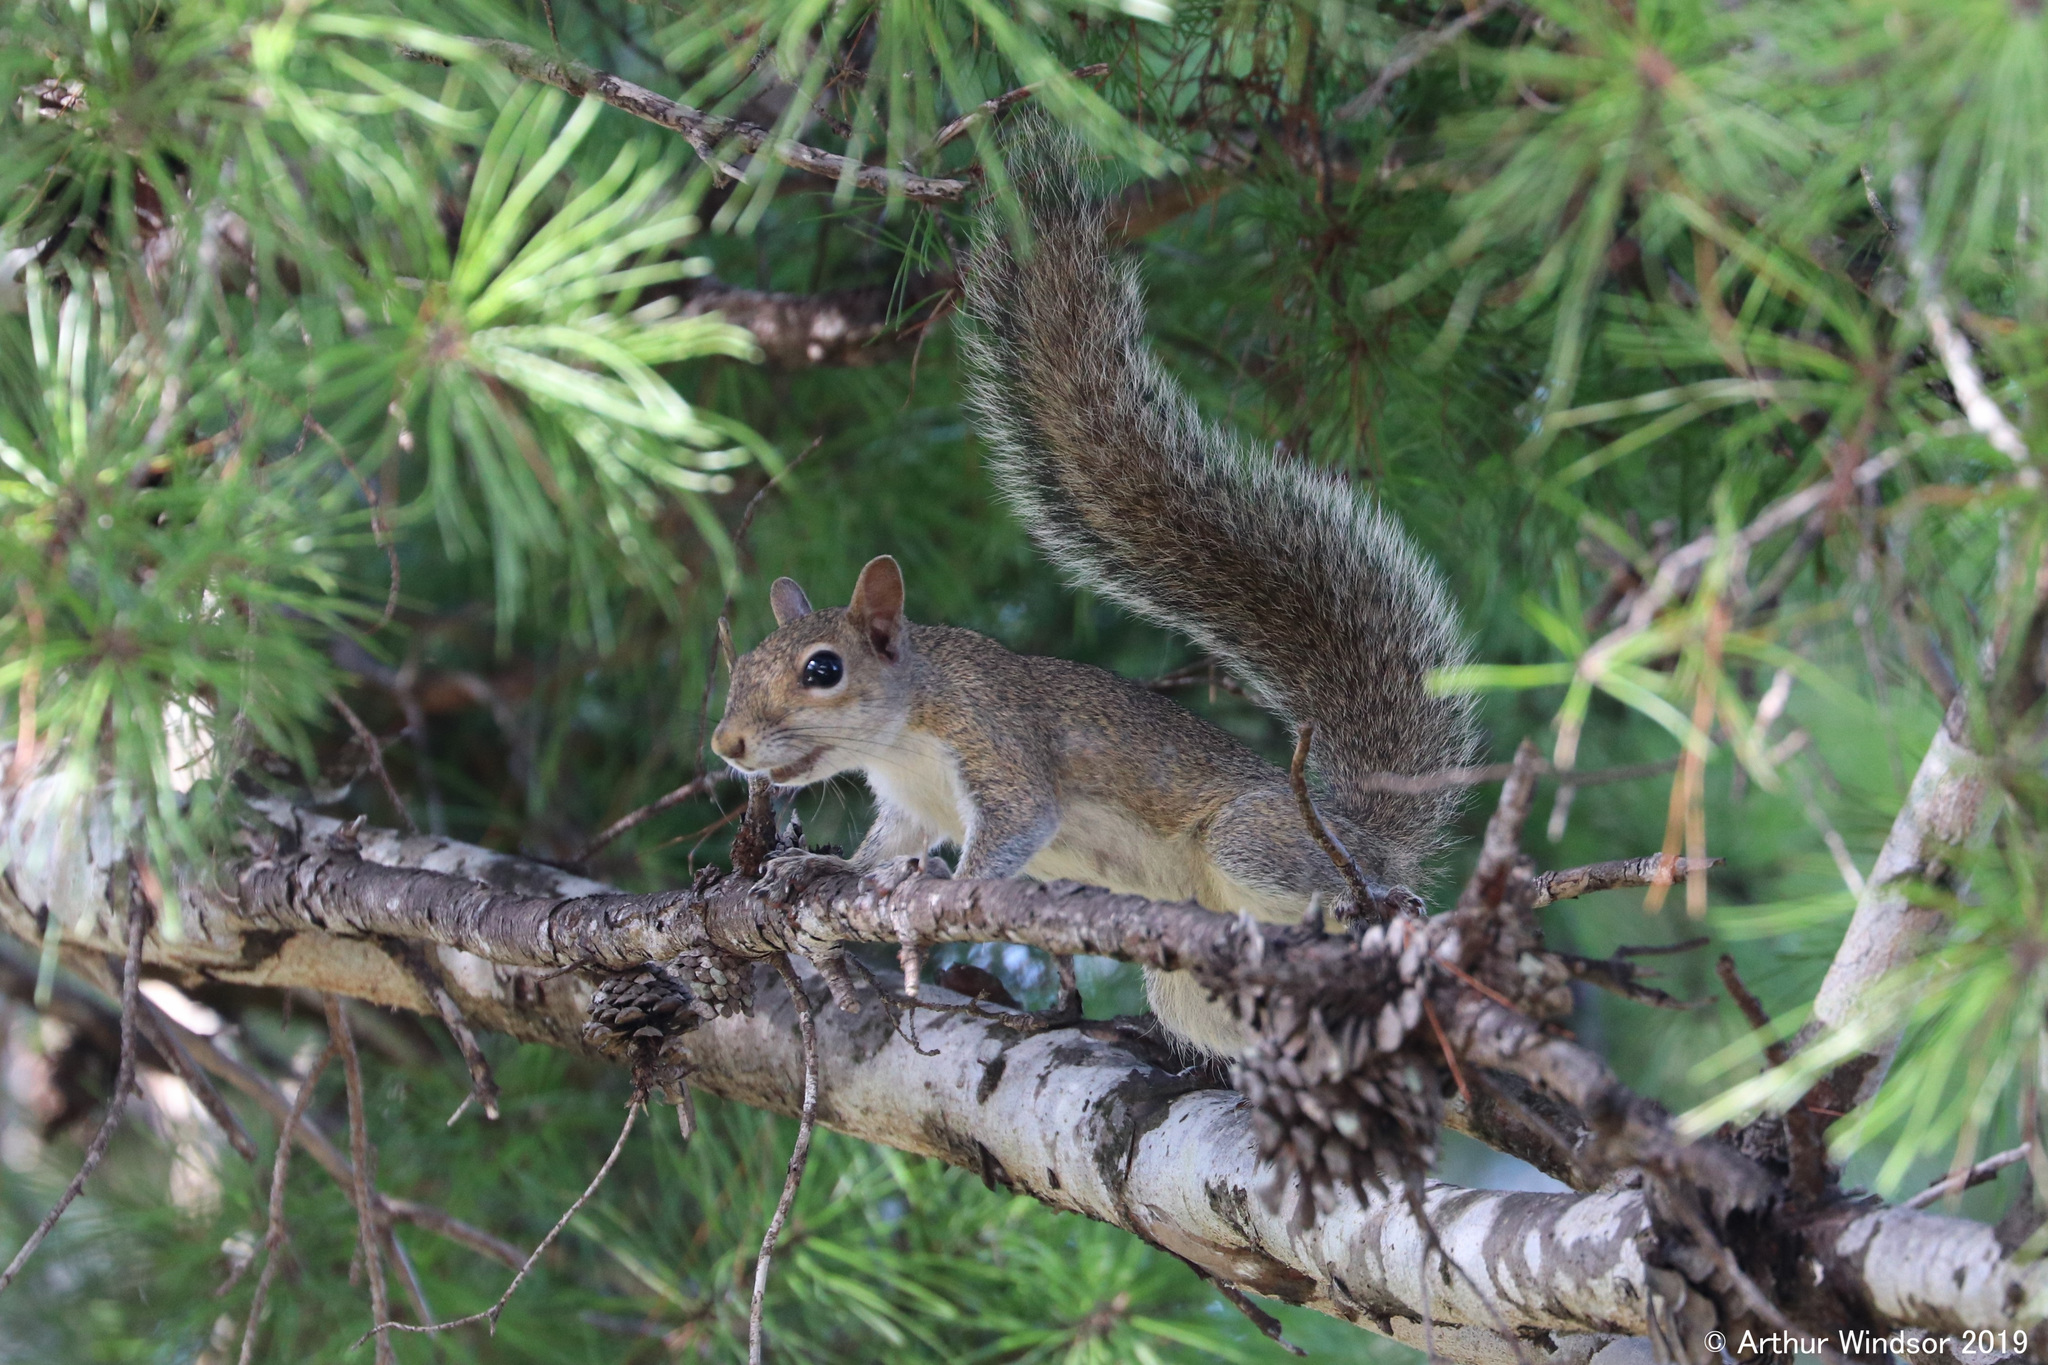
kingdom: Animalia
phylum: Chordata
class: Mammalia
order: Rodentia
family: Sciuridae
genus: Sciurus
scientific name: Sciurus carolinensis
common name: Eastern gray squirrel
